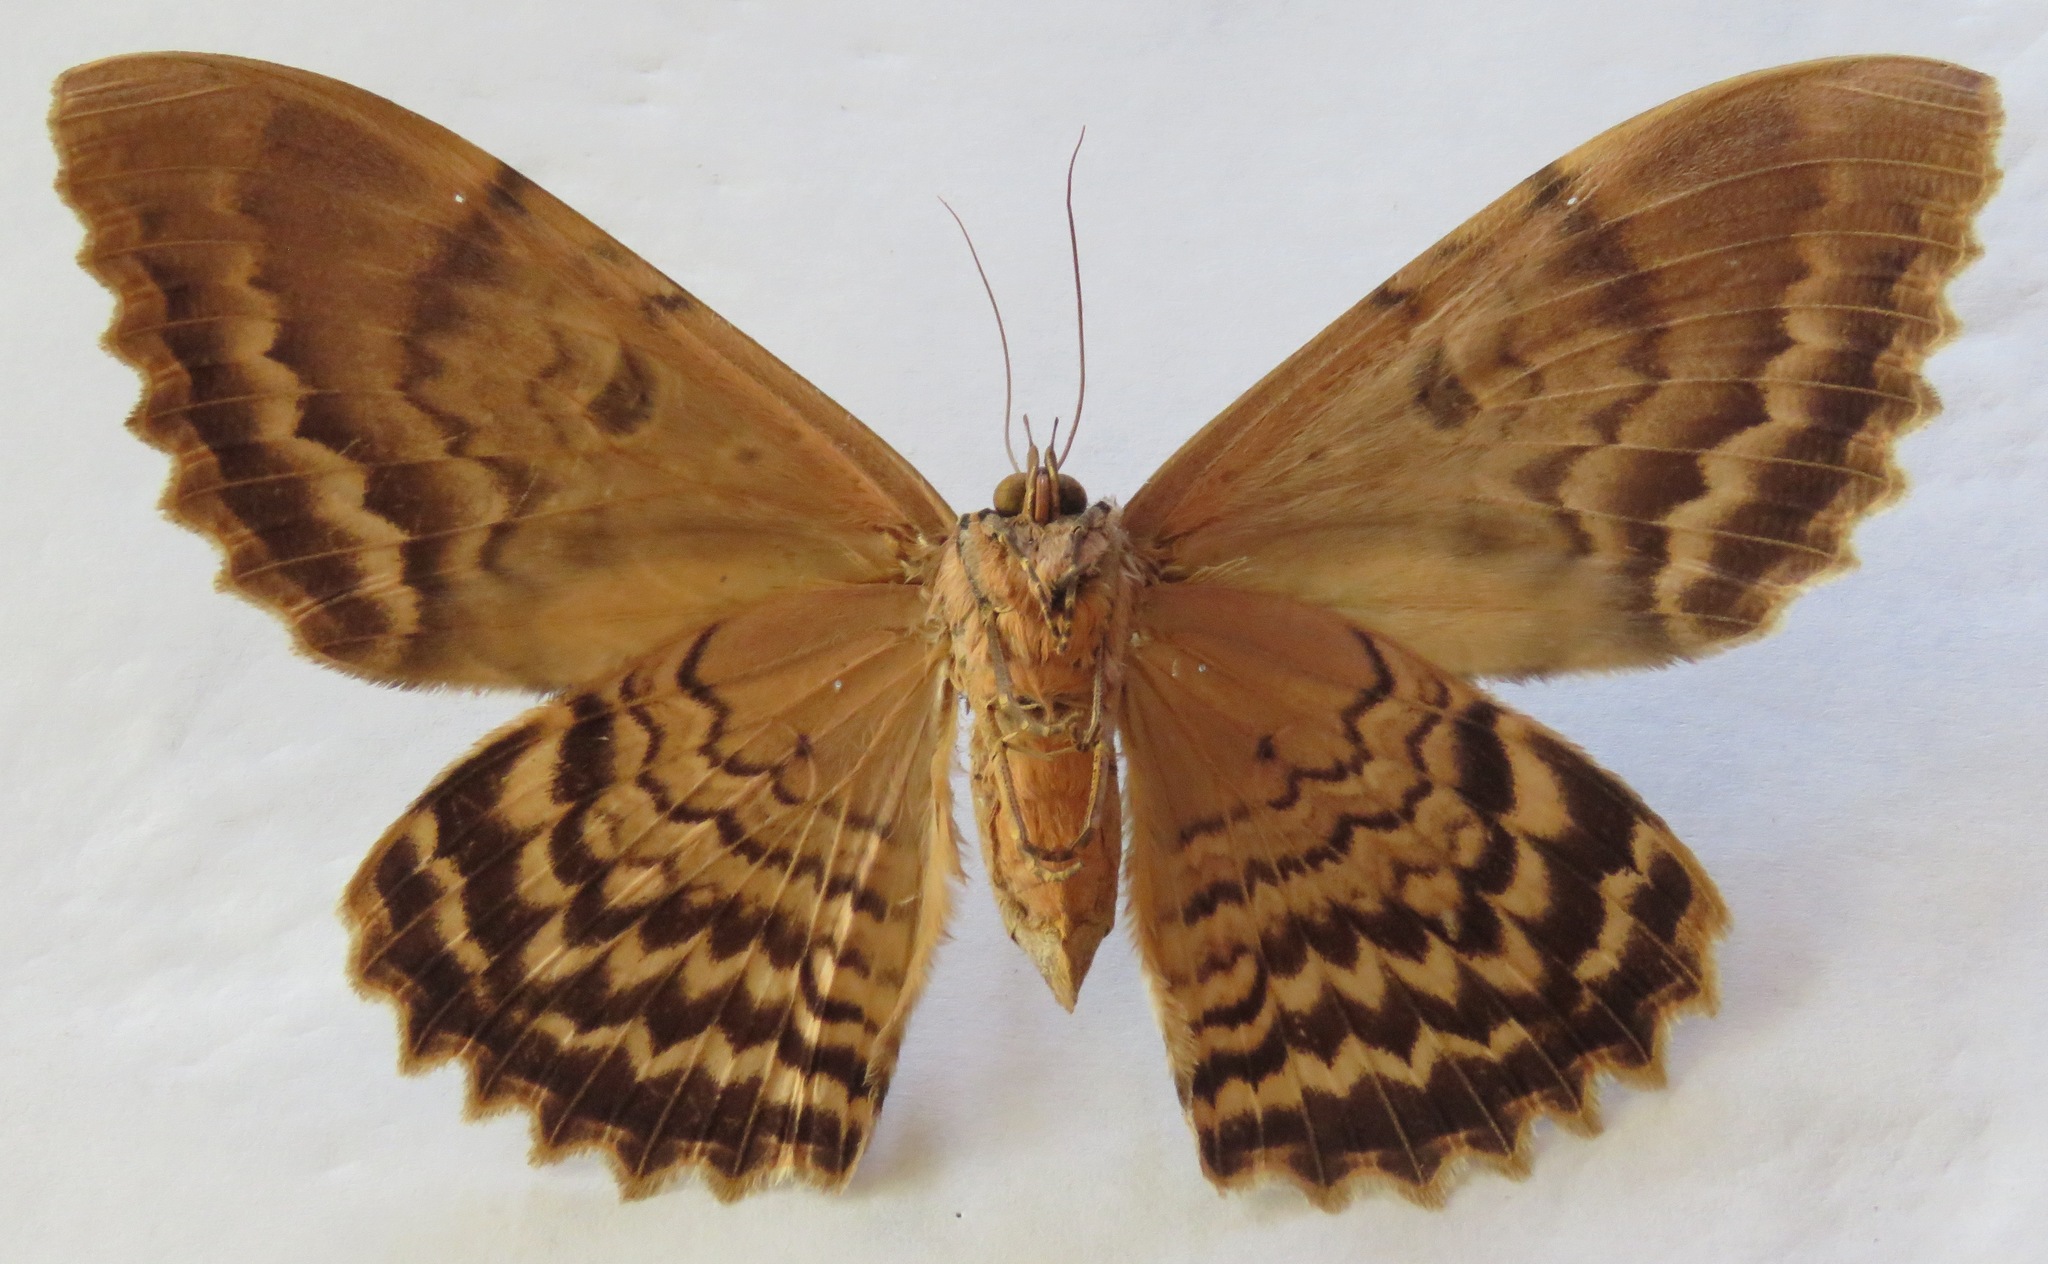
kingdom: Animalia
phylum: Arthropoda
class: Insecta
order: Lepidoptera
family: Erebidae
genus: Thysania
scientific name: Thysania zenobia
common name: Owl moth
